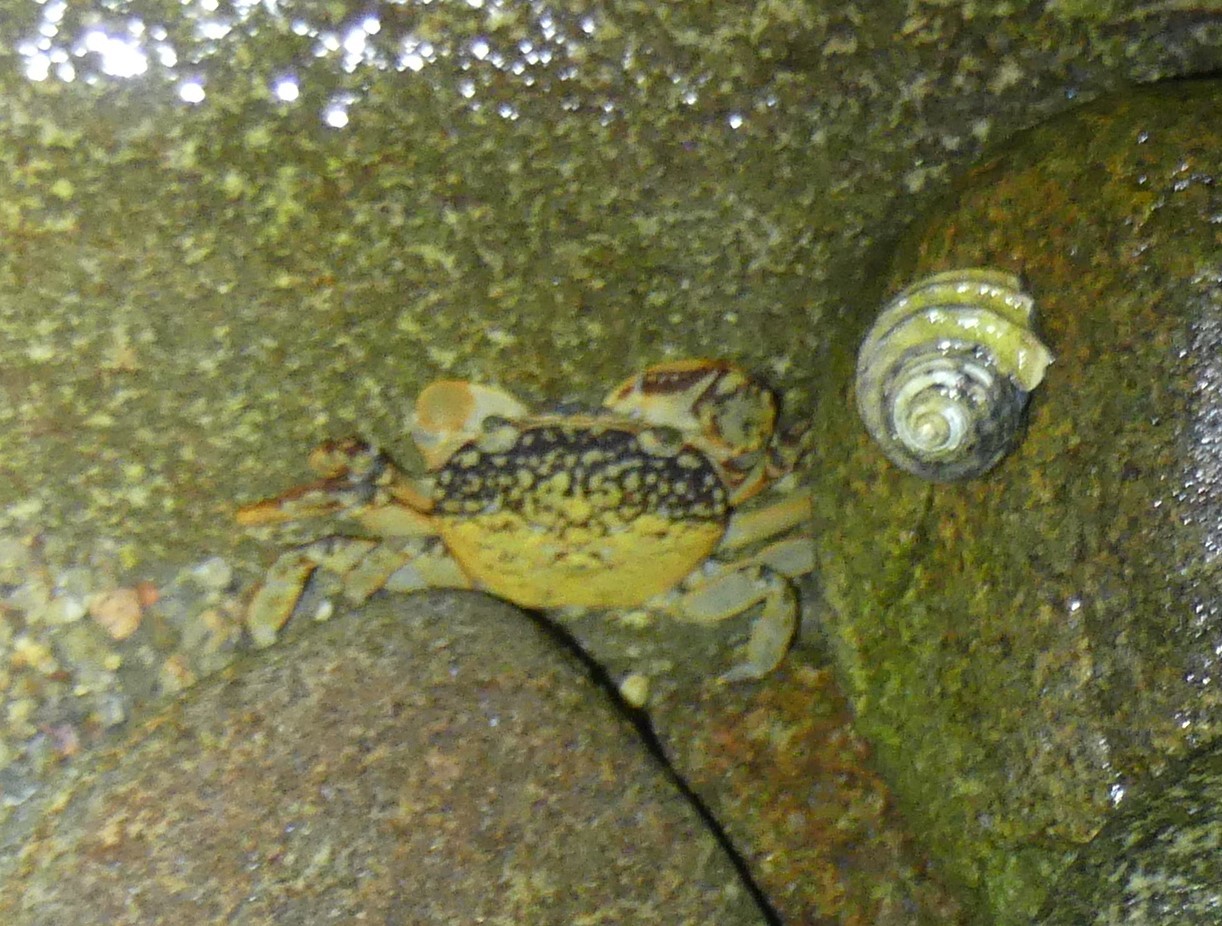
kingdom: Animalia
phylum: Arthropoda
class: Malacostraca
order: Decapoda
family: Varunidae
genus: Cyclograpsus
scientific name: Cyclograpsus granulosus
